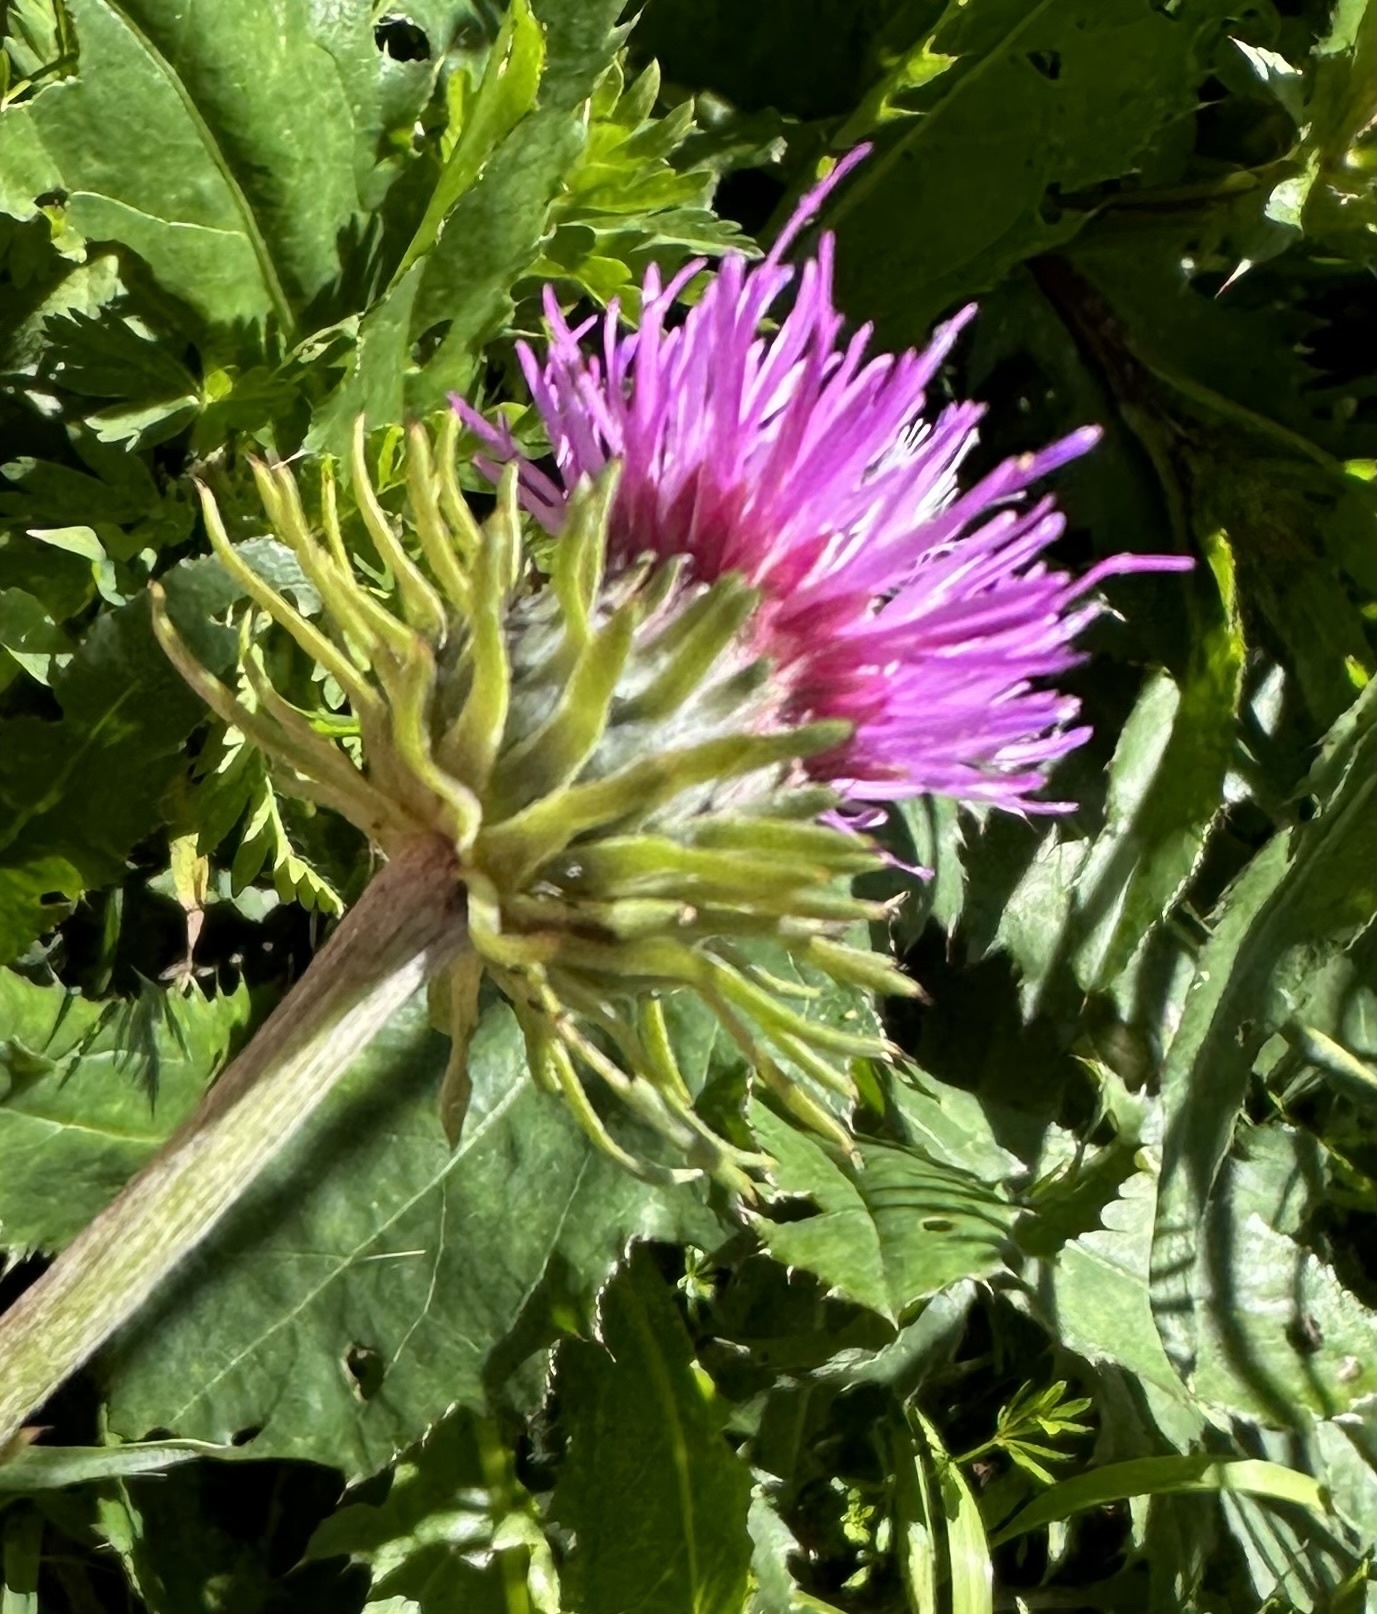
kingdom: Plantae
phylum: Tracheophyta
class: Magnoliopsida
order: Asterales
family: Asteraceae
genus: Carduus
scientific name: Carduus defloratus
